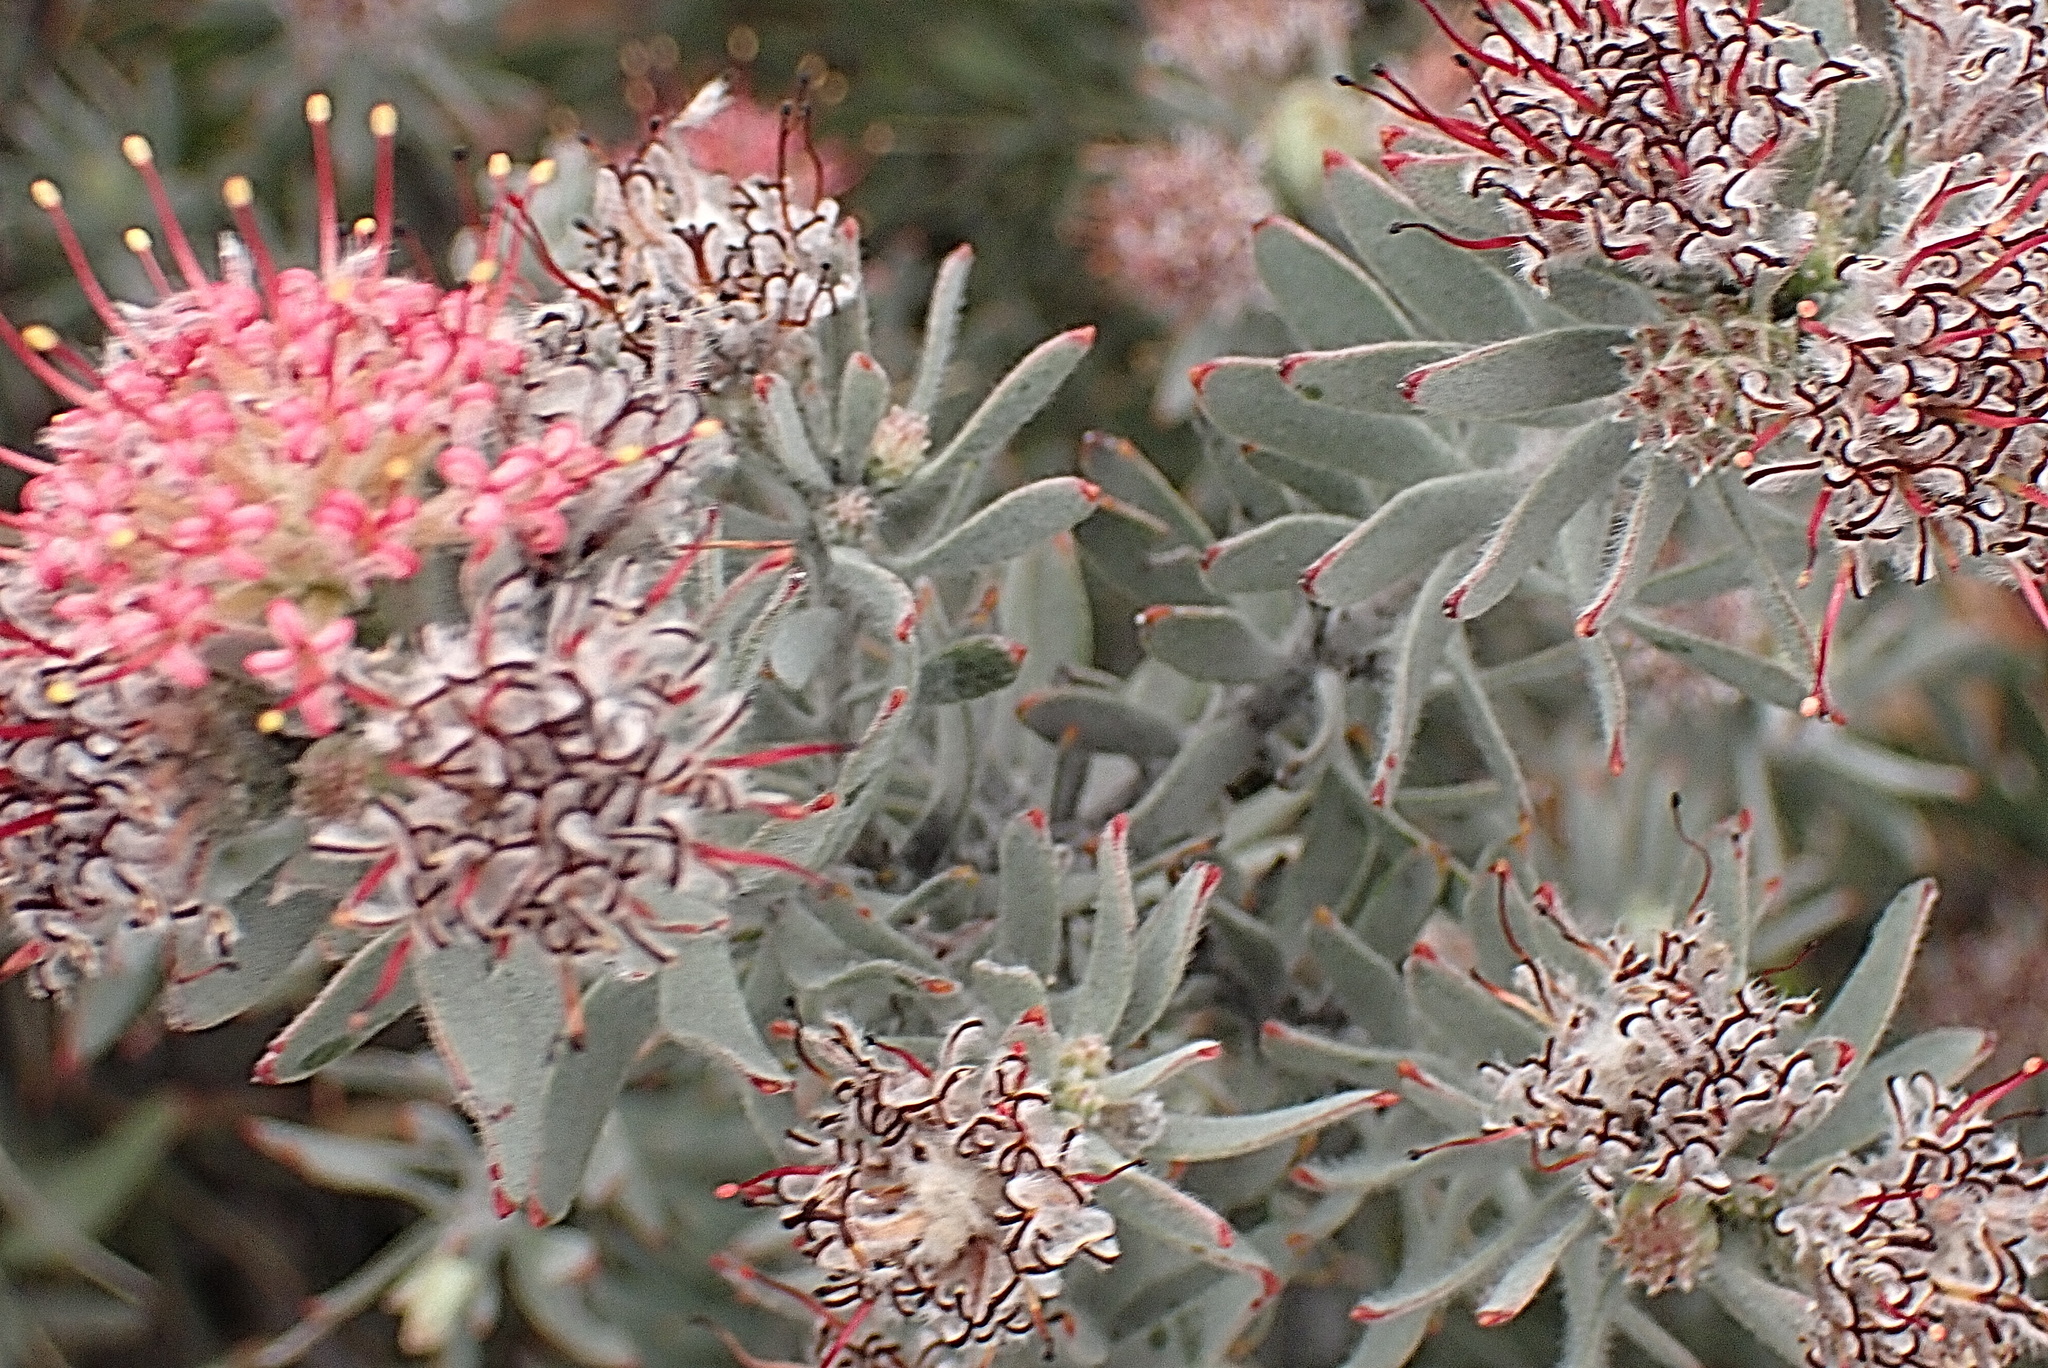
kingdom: Plantae
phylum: Tracheophyta
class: Magnoliopsida
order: Proteales
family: Proteaceae
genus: Leucospermum
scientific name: Leucospermum wittebergense
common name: Swartberg pincushion
